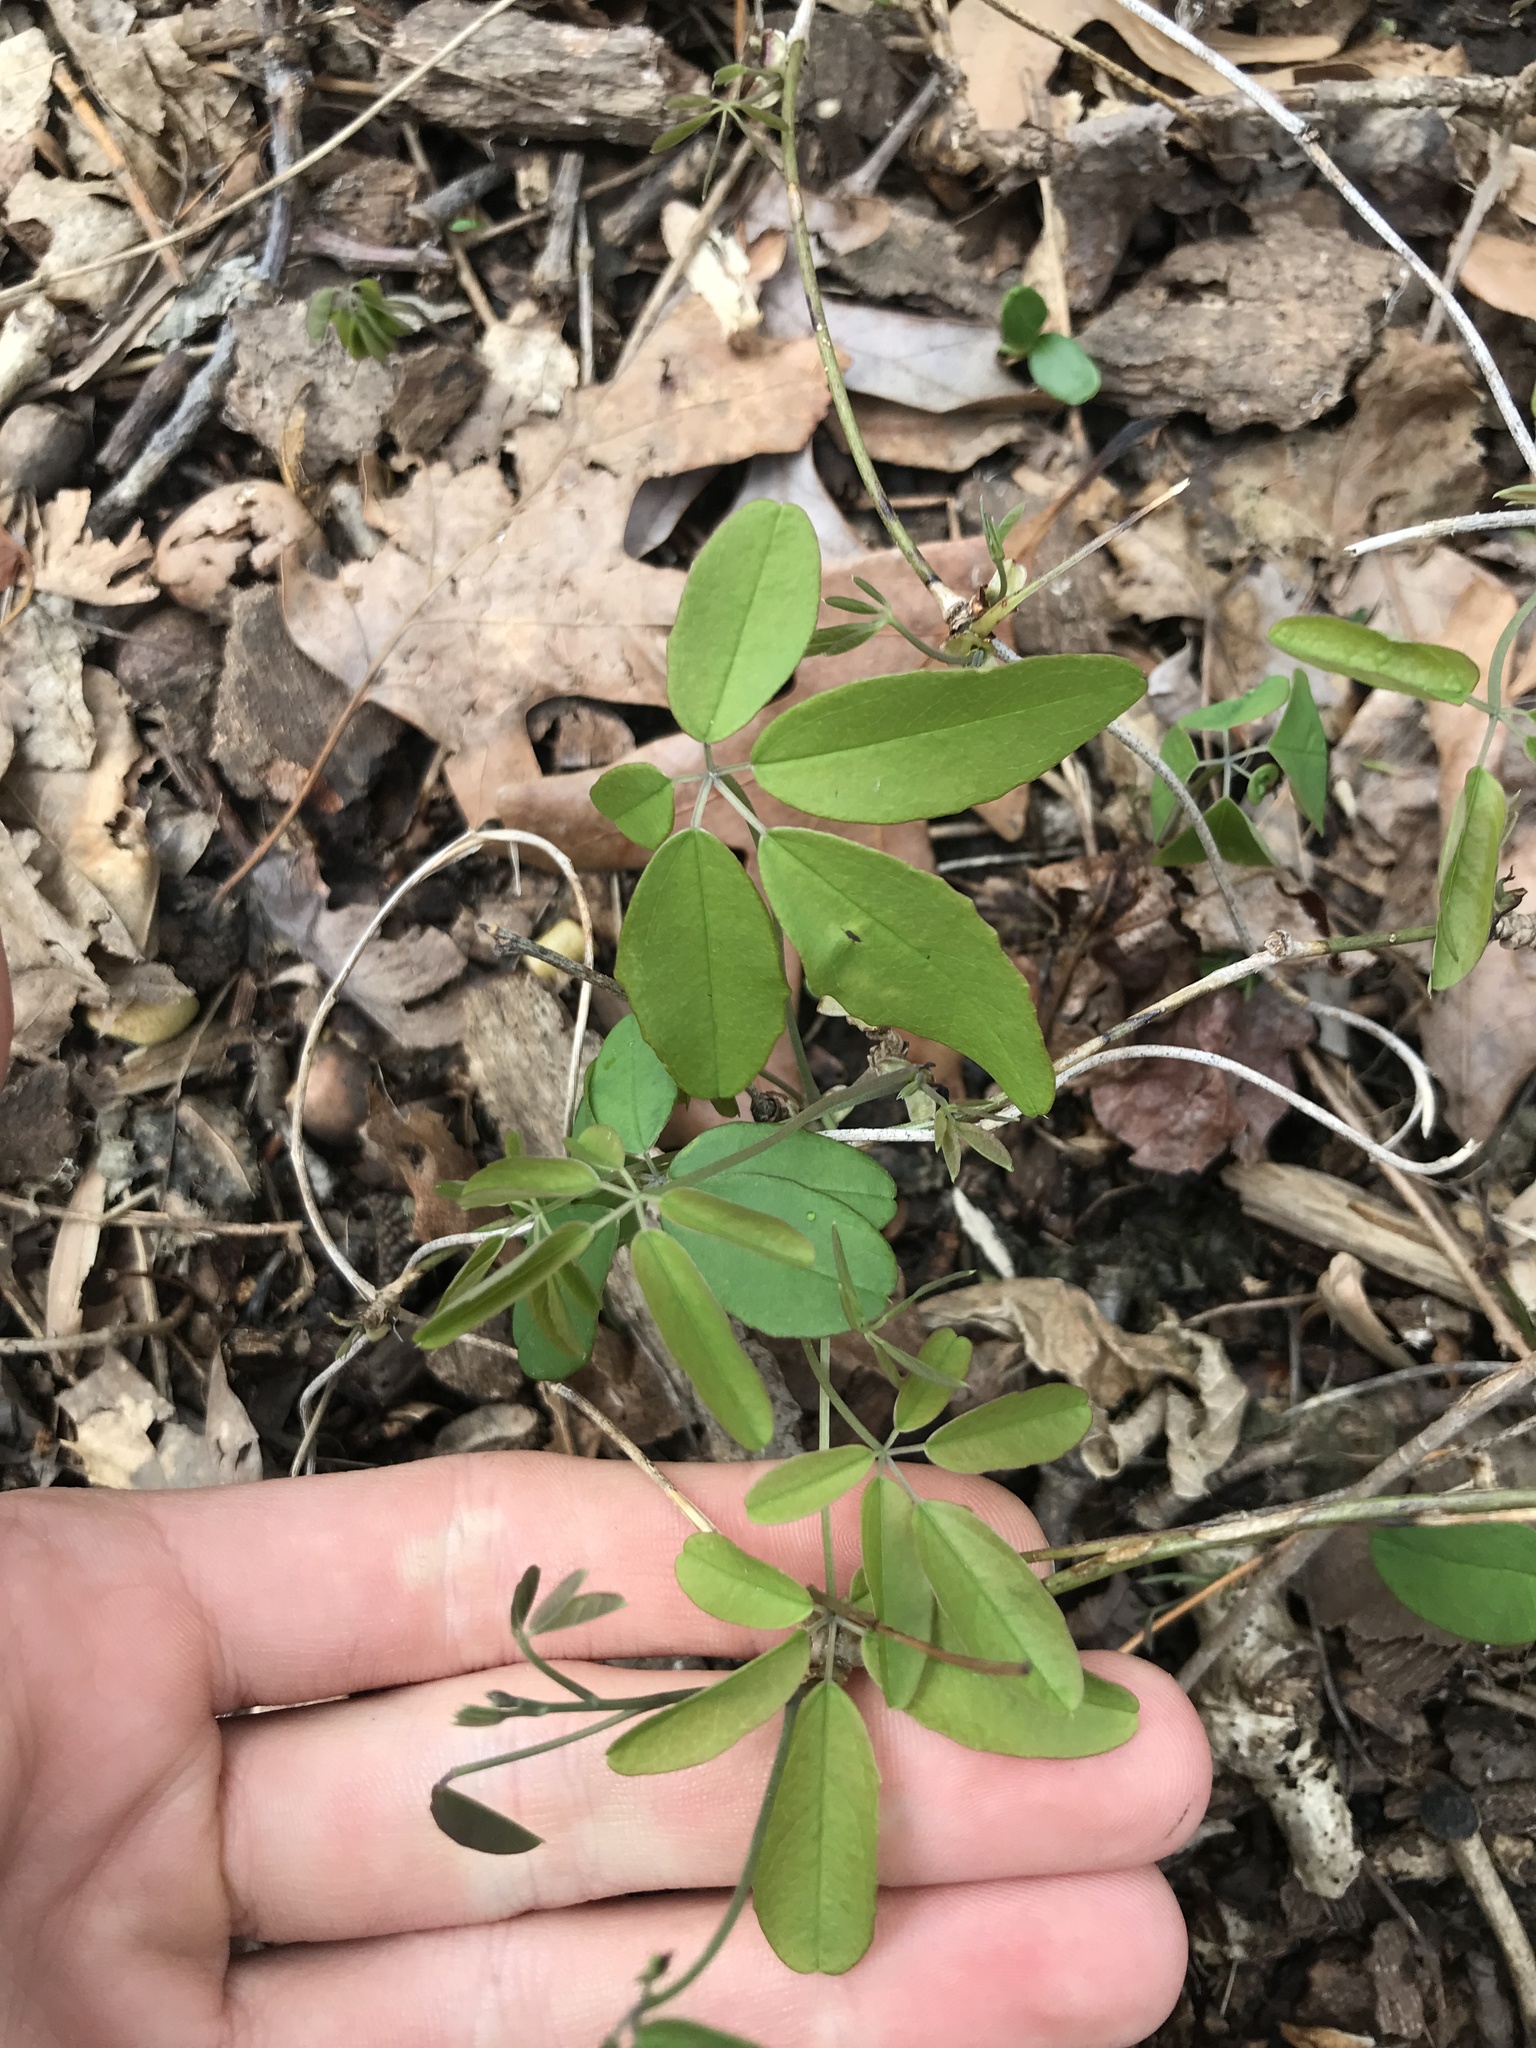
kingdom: Plantae
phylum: Tracheophyta
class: Magnoliopsida
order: Ranunculales
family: Lardizabalaceae
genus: Akebia
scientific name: Akebia quinata
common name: Five-leaf akebia
